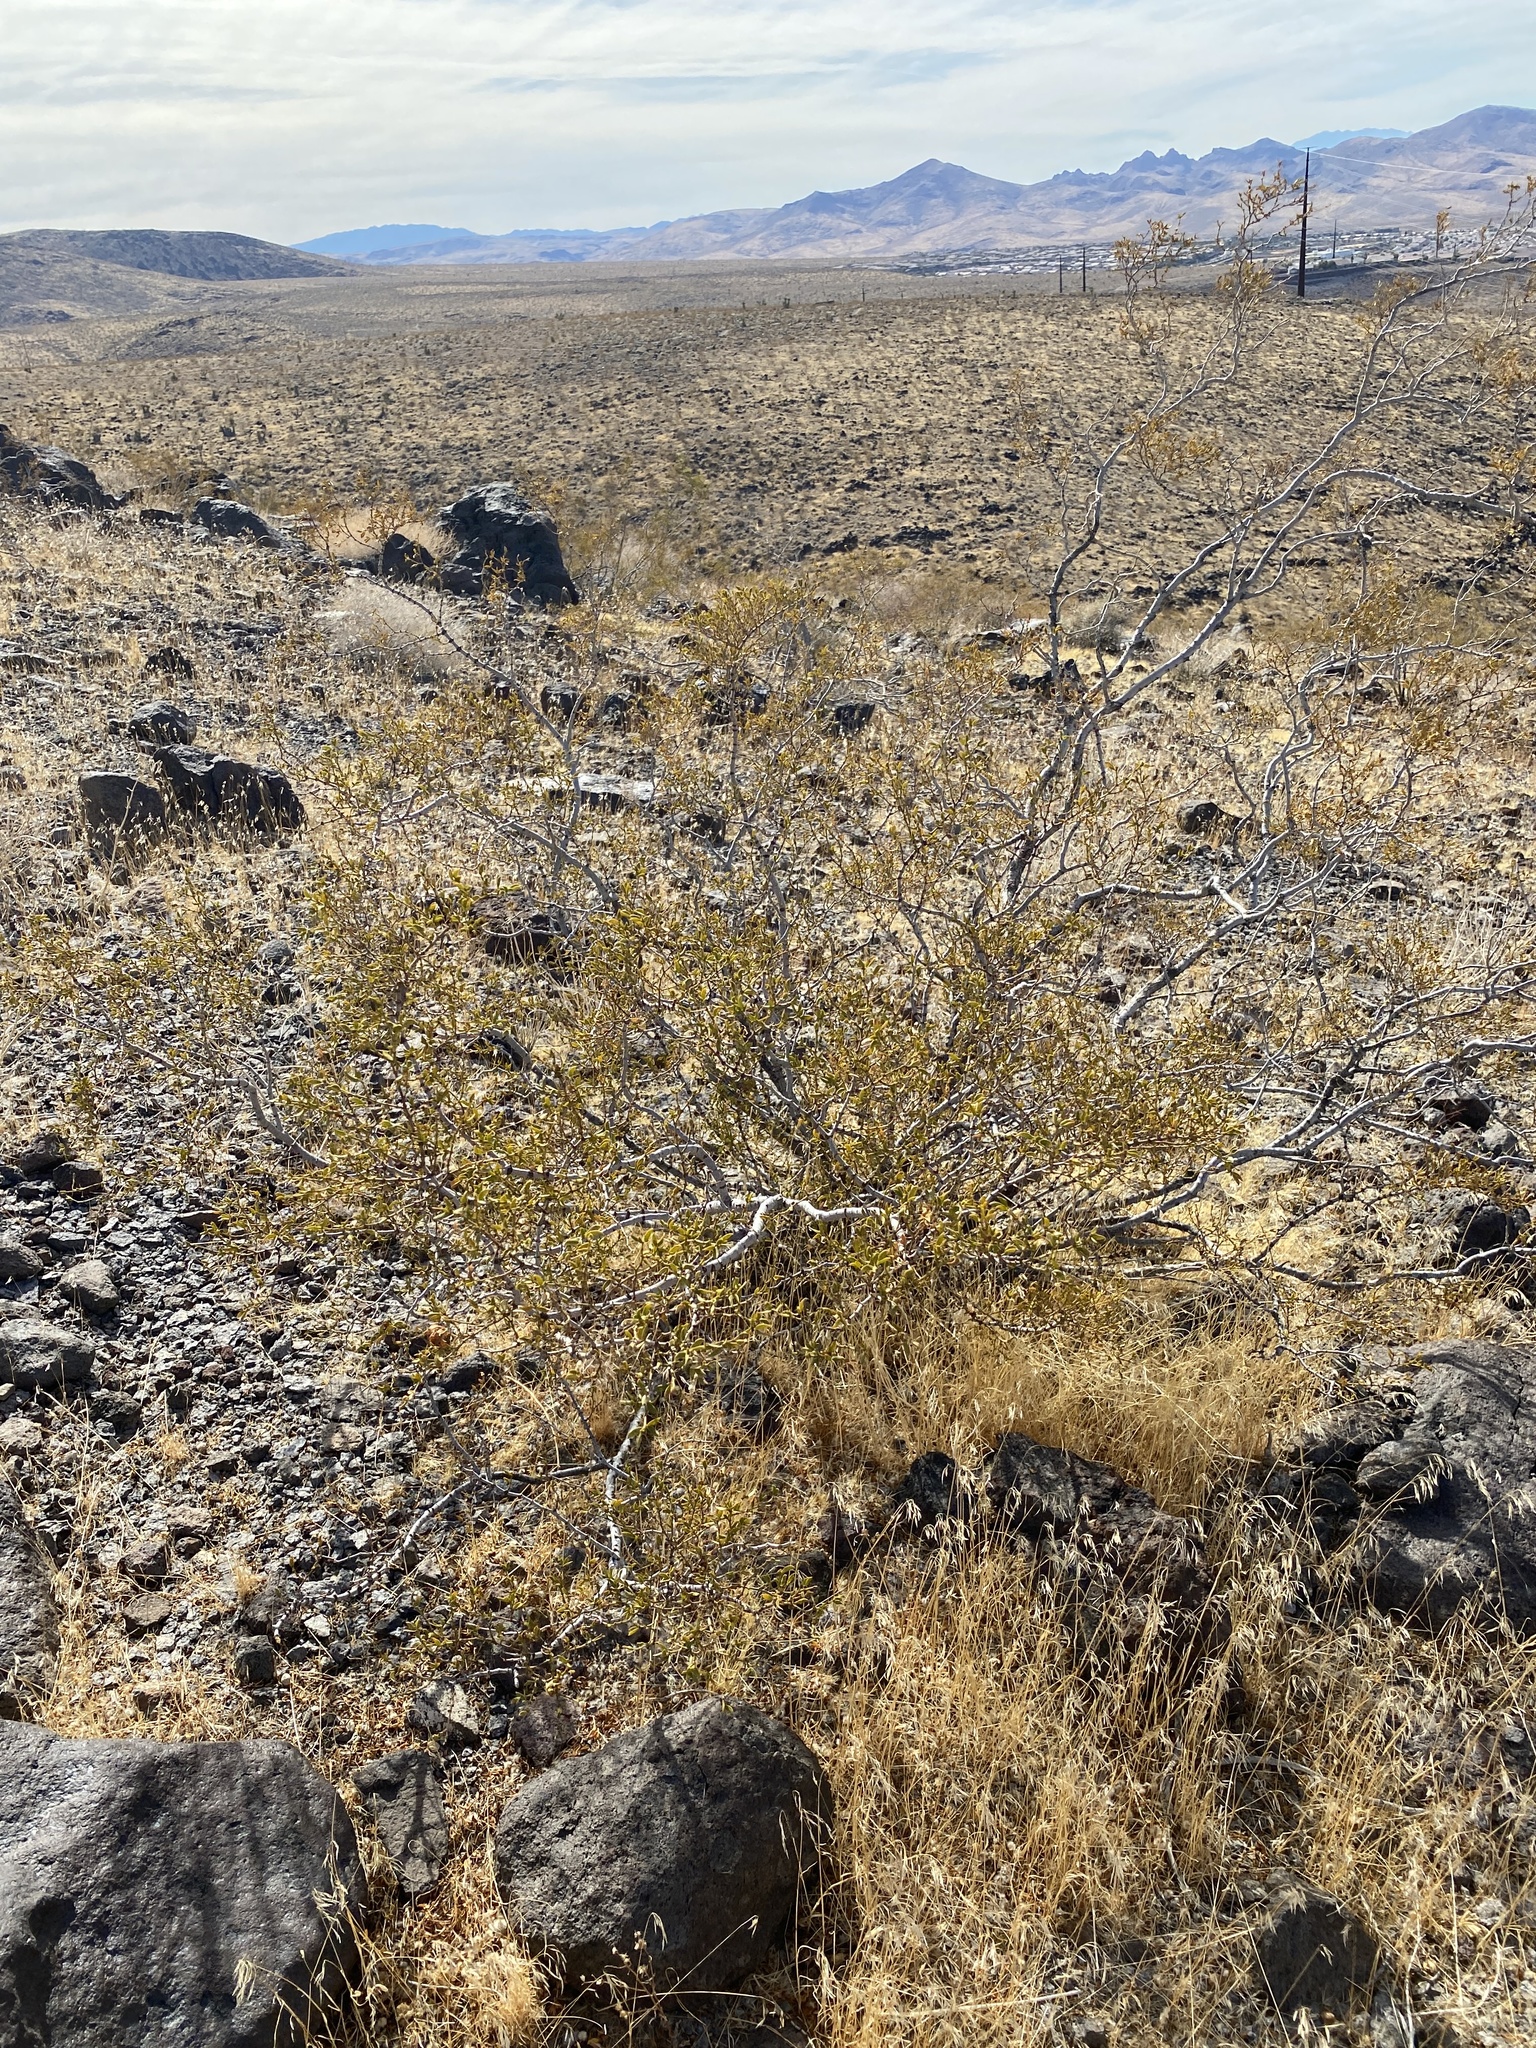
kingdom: Plantae
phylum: Tracheophyta
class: Magnoliopsida
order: Zygophyllales
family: Zygophyllaceae
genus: Larrea
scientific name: Larrea tridentata
